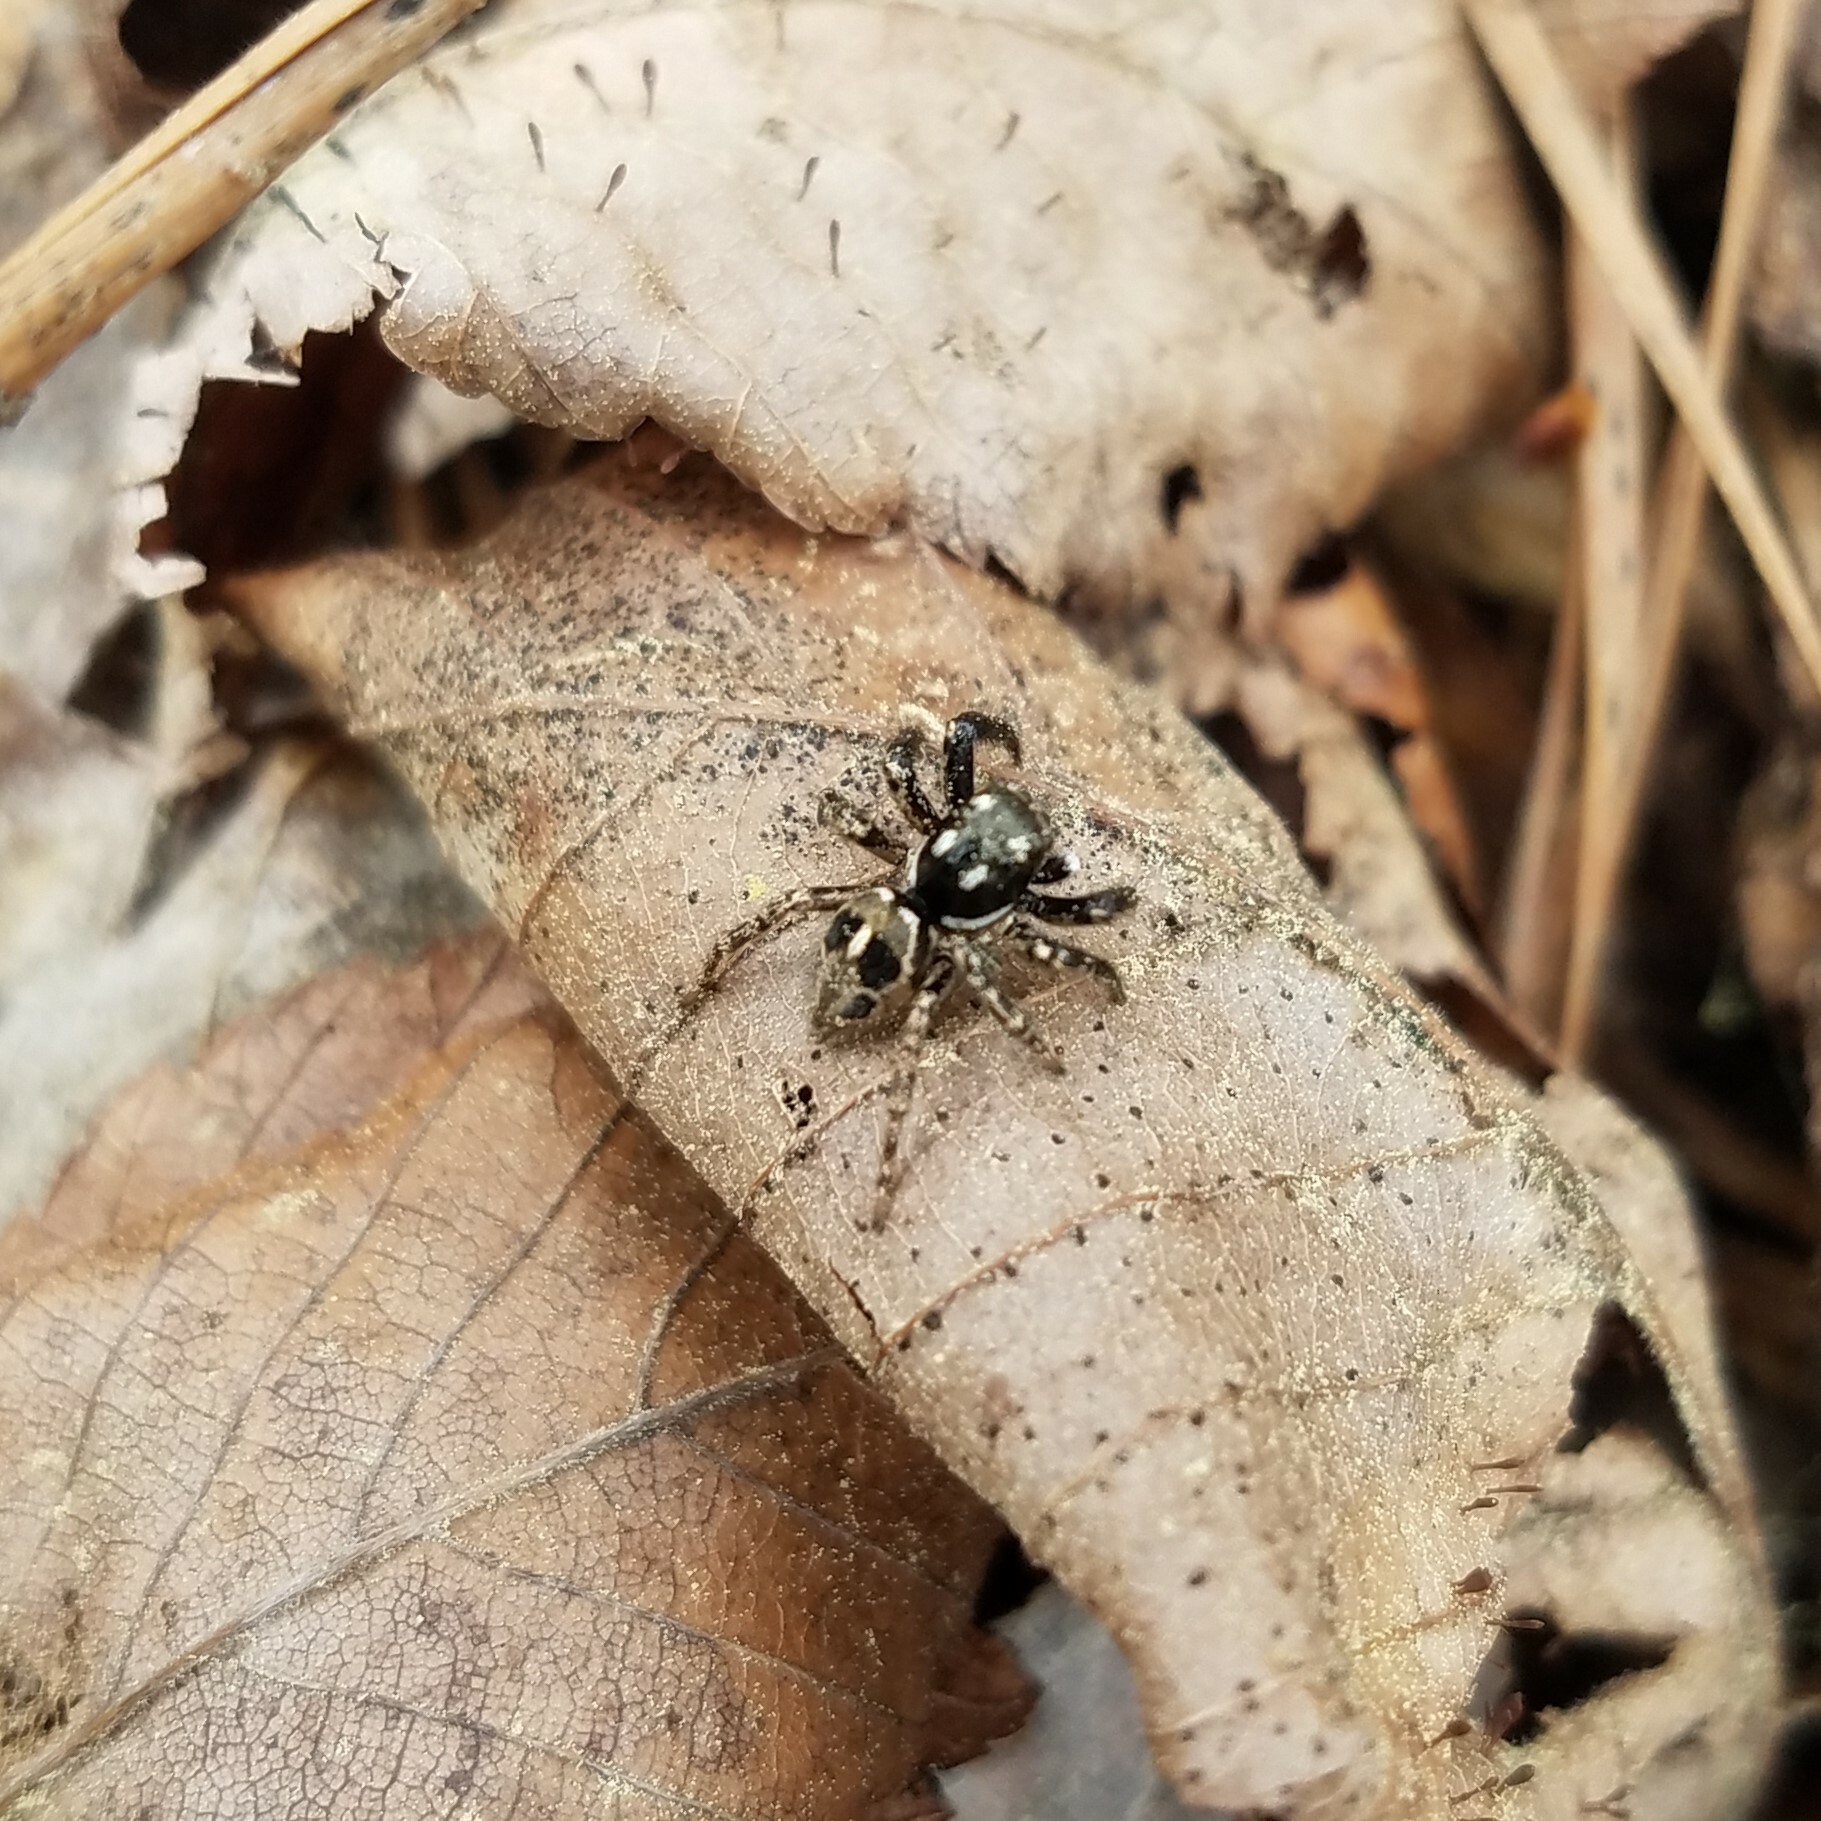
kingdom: Animalia
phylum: Arthropoda
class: Arachnida
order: Araneae
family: Salticidae
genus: Anasaitis
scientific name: Anasaitis canosa
